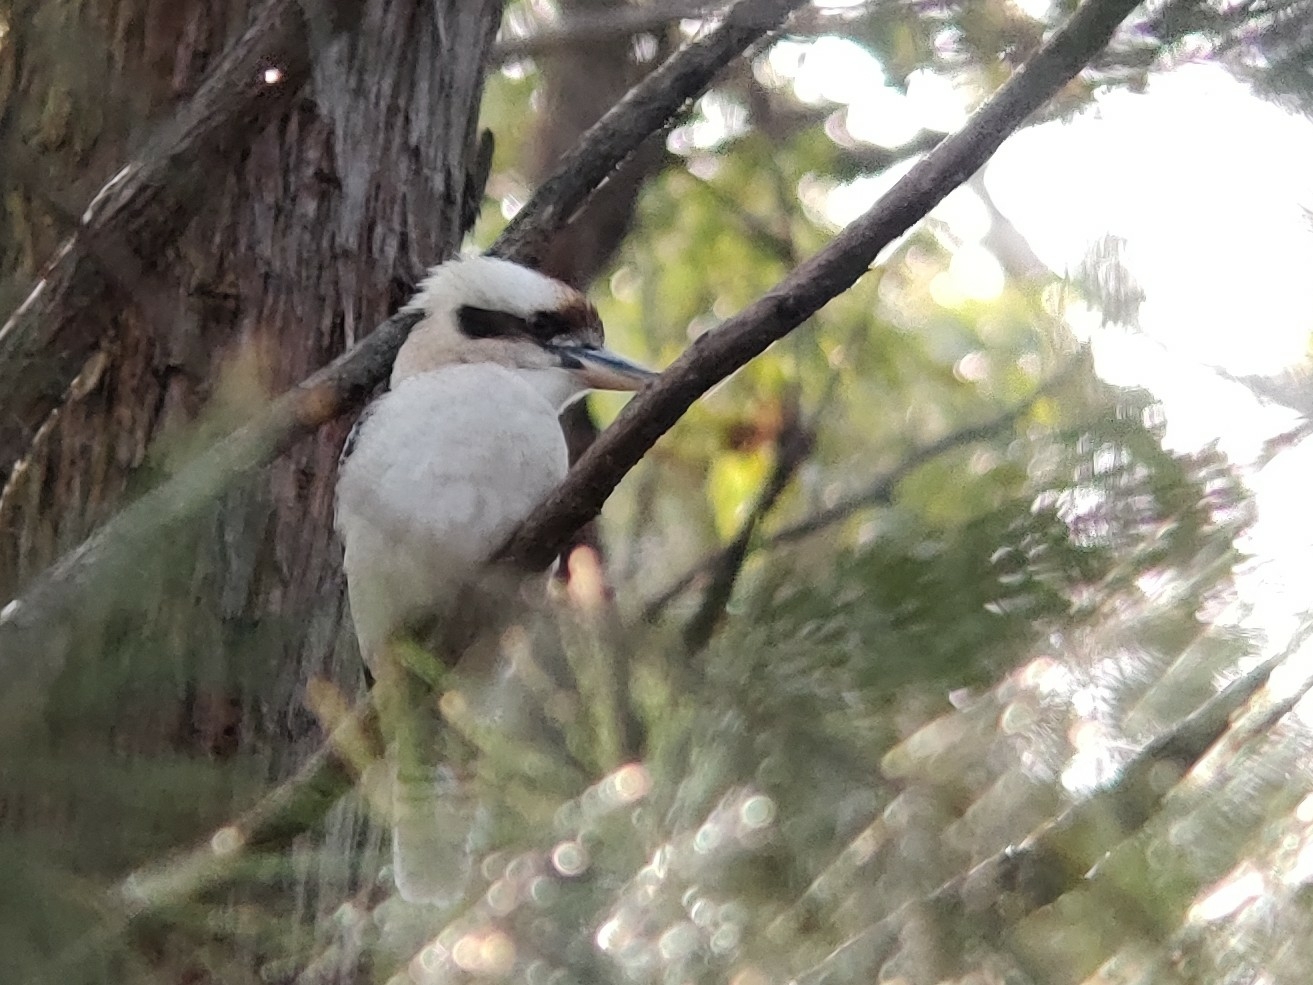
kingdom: Animalia
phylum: Chordata
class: Aves
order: Coraciiformes
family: Alcedinidae
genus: Dacelo
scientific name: Dacelo novaeguineae
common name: Laughing kookaburra
